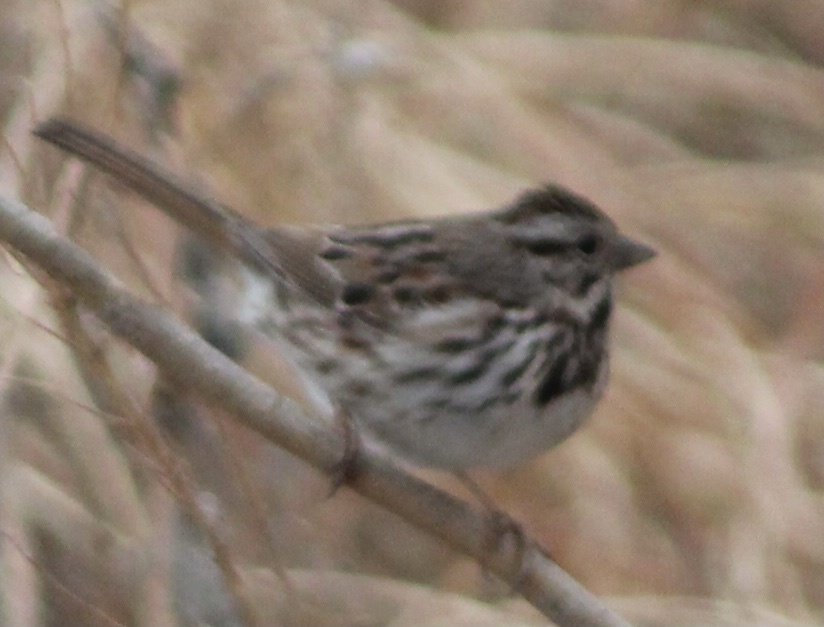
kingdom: Animalia
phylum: Chordata
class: Aves
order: Passeriformes
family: Passerellidae
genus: Melospiza
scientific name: Melospiza melodia
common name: Song sparrow
